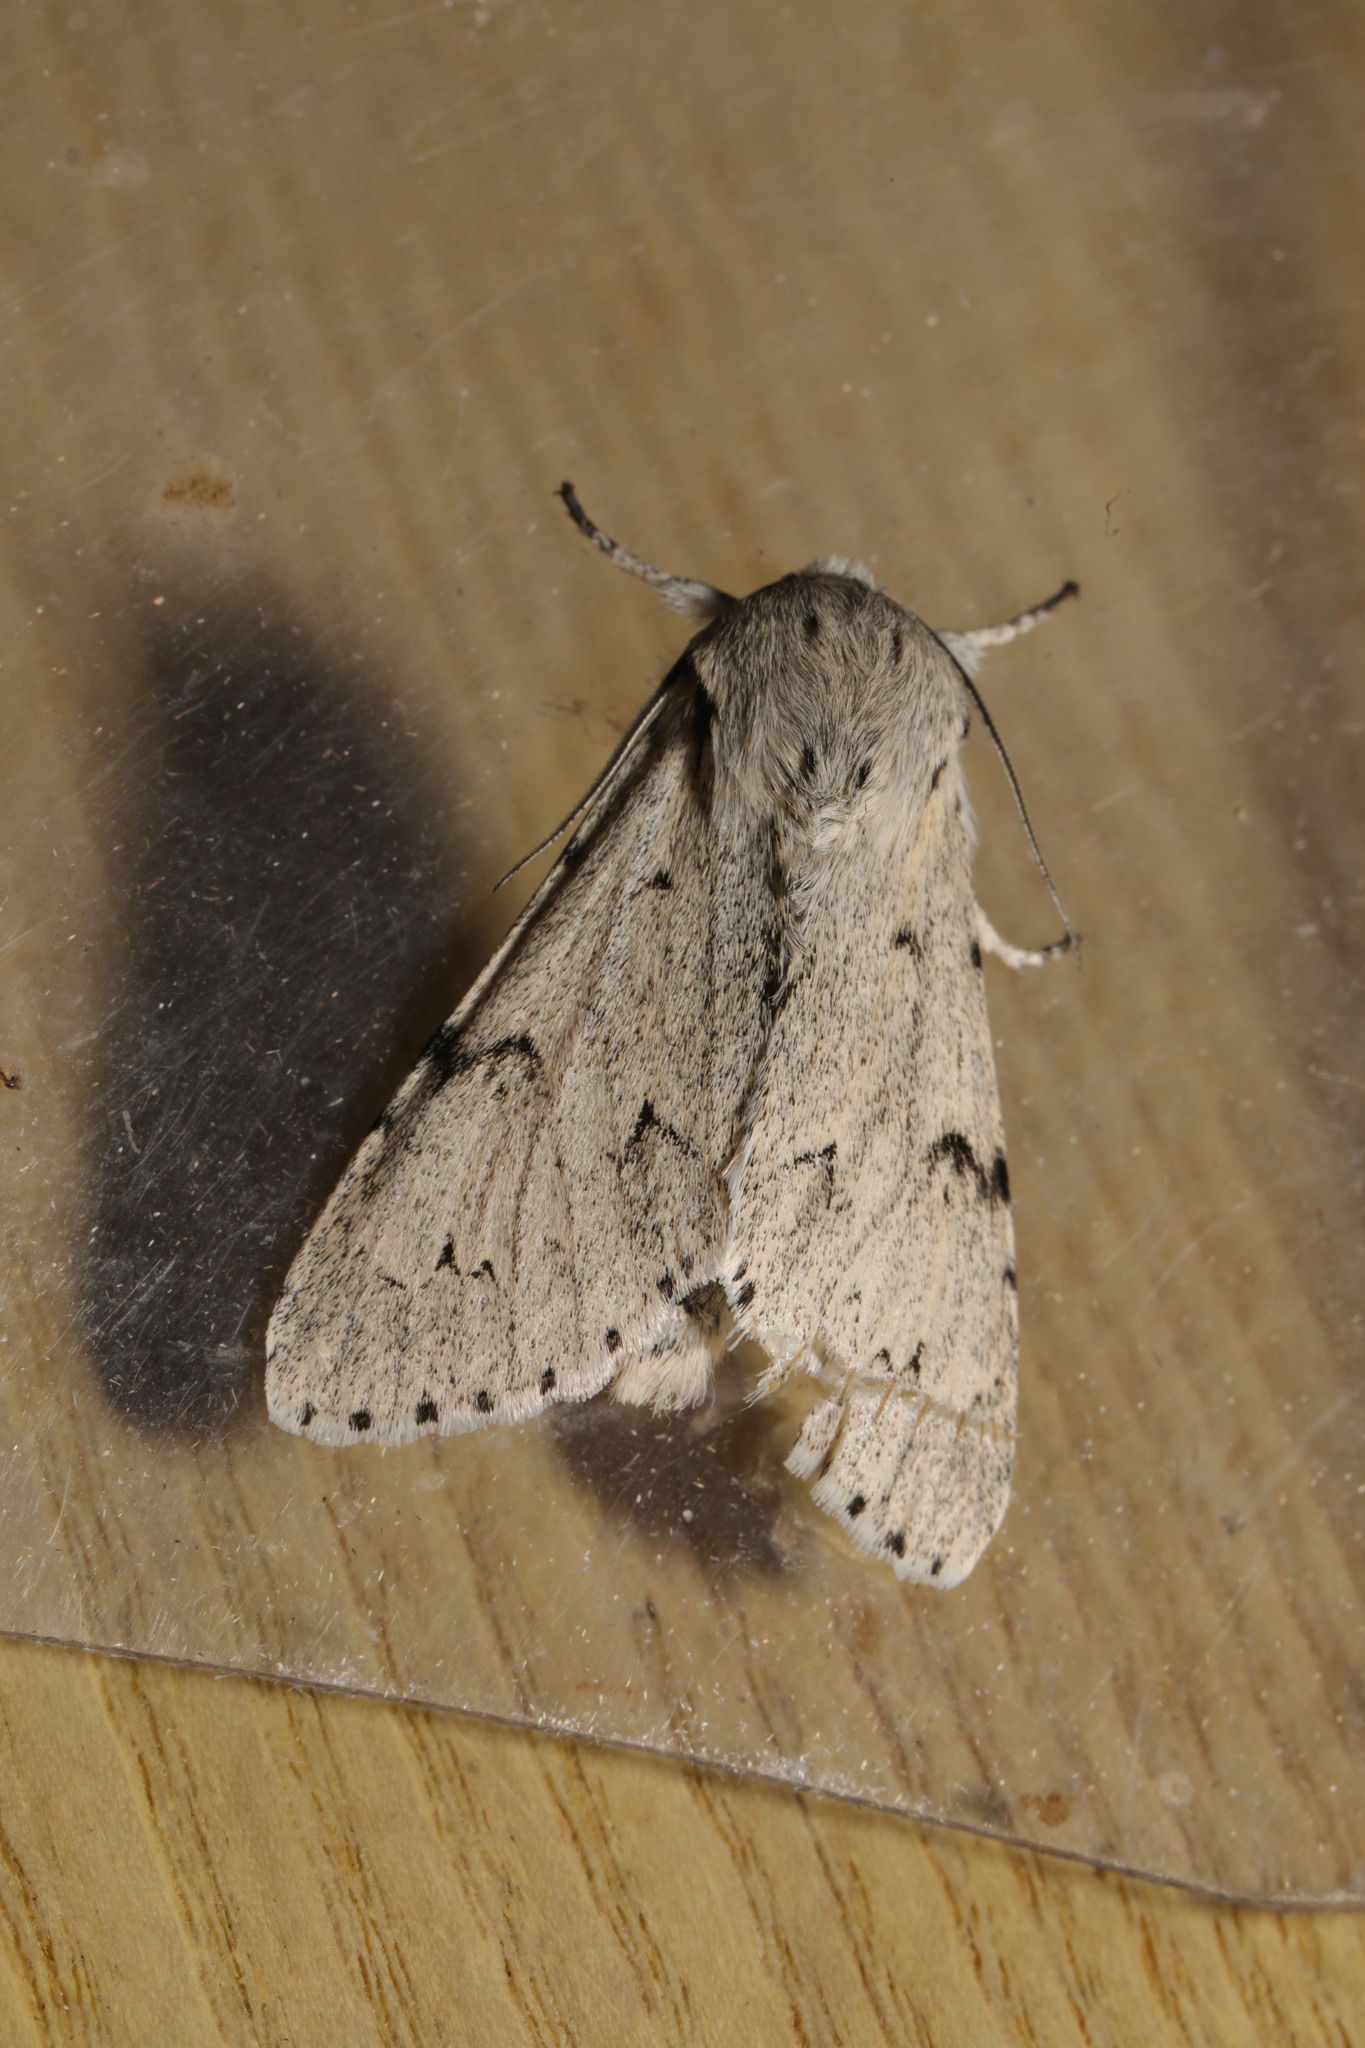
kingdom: Animalia
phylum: Arthropoda
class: Insecta
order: Lepidoptera
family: Noctuidae
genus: Acronicta
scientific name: Acronicta leporina
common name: Miller
